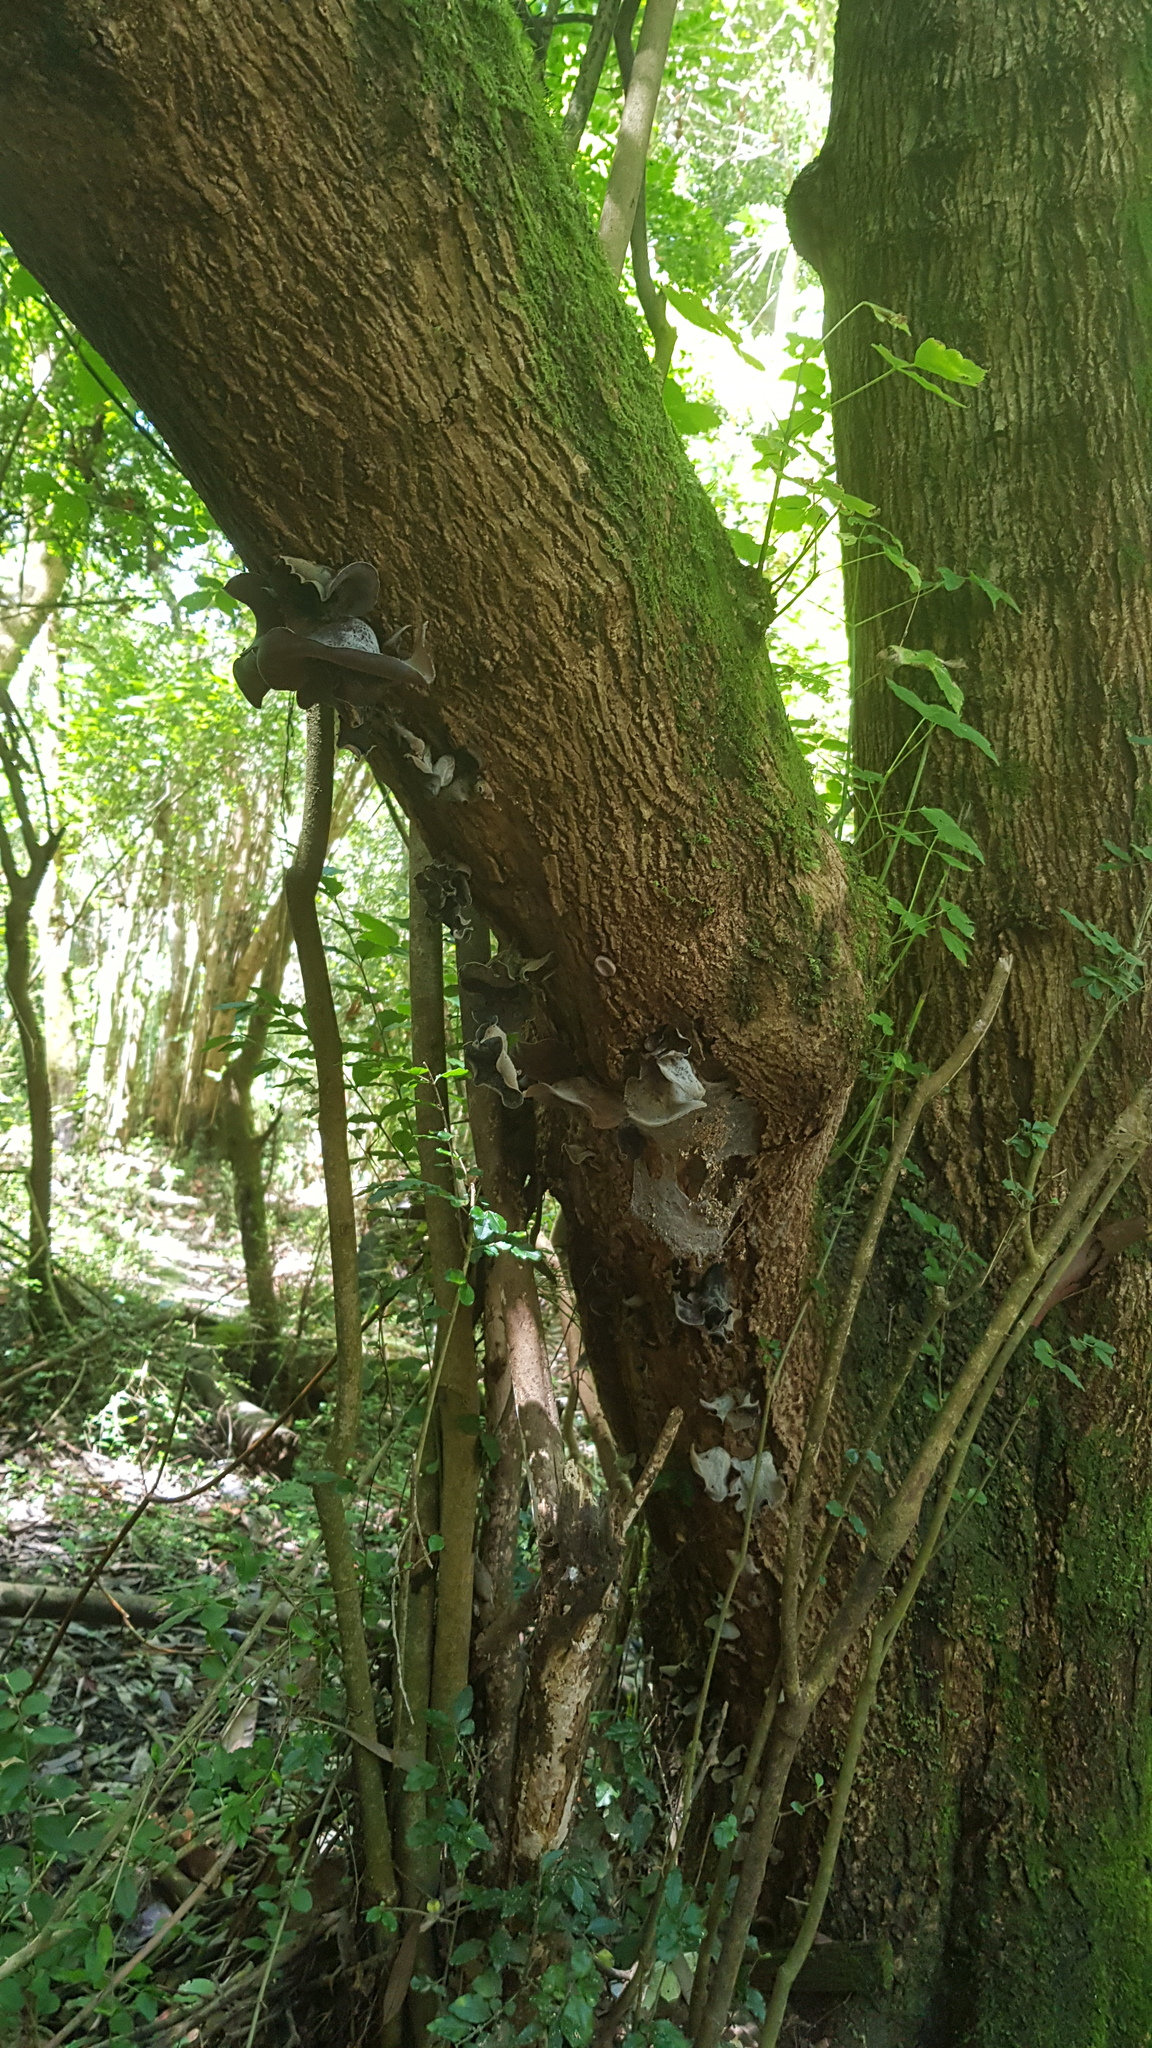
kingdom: Fungi
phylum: Basidiomycota
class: Agaricomycetes
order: Auriculariales
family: Auriculariaceae
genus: Auricularia
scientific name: Auricularia cornea
